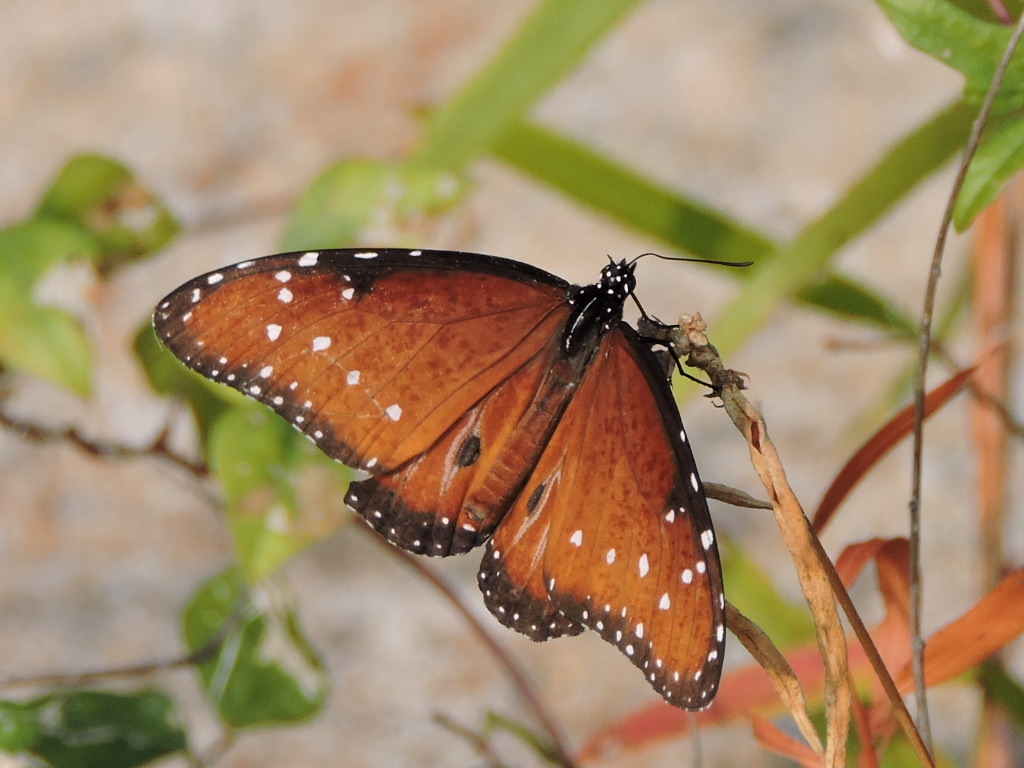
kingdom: Animalia
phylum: Arthropoda
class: Insecta
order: Lepidoptera
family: Nymphalidae
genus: Danaus
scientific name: Danaus gilippus
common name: Queen
